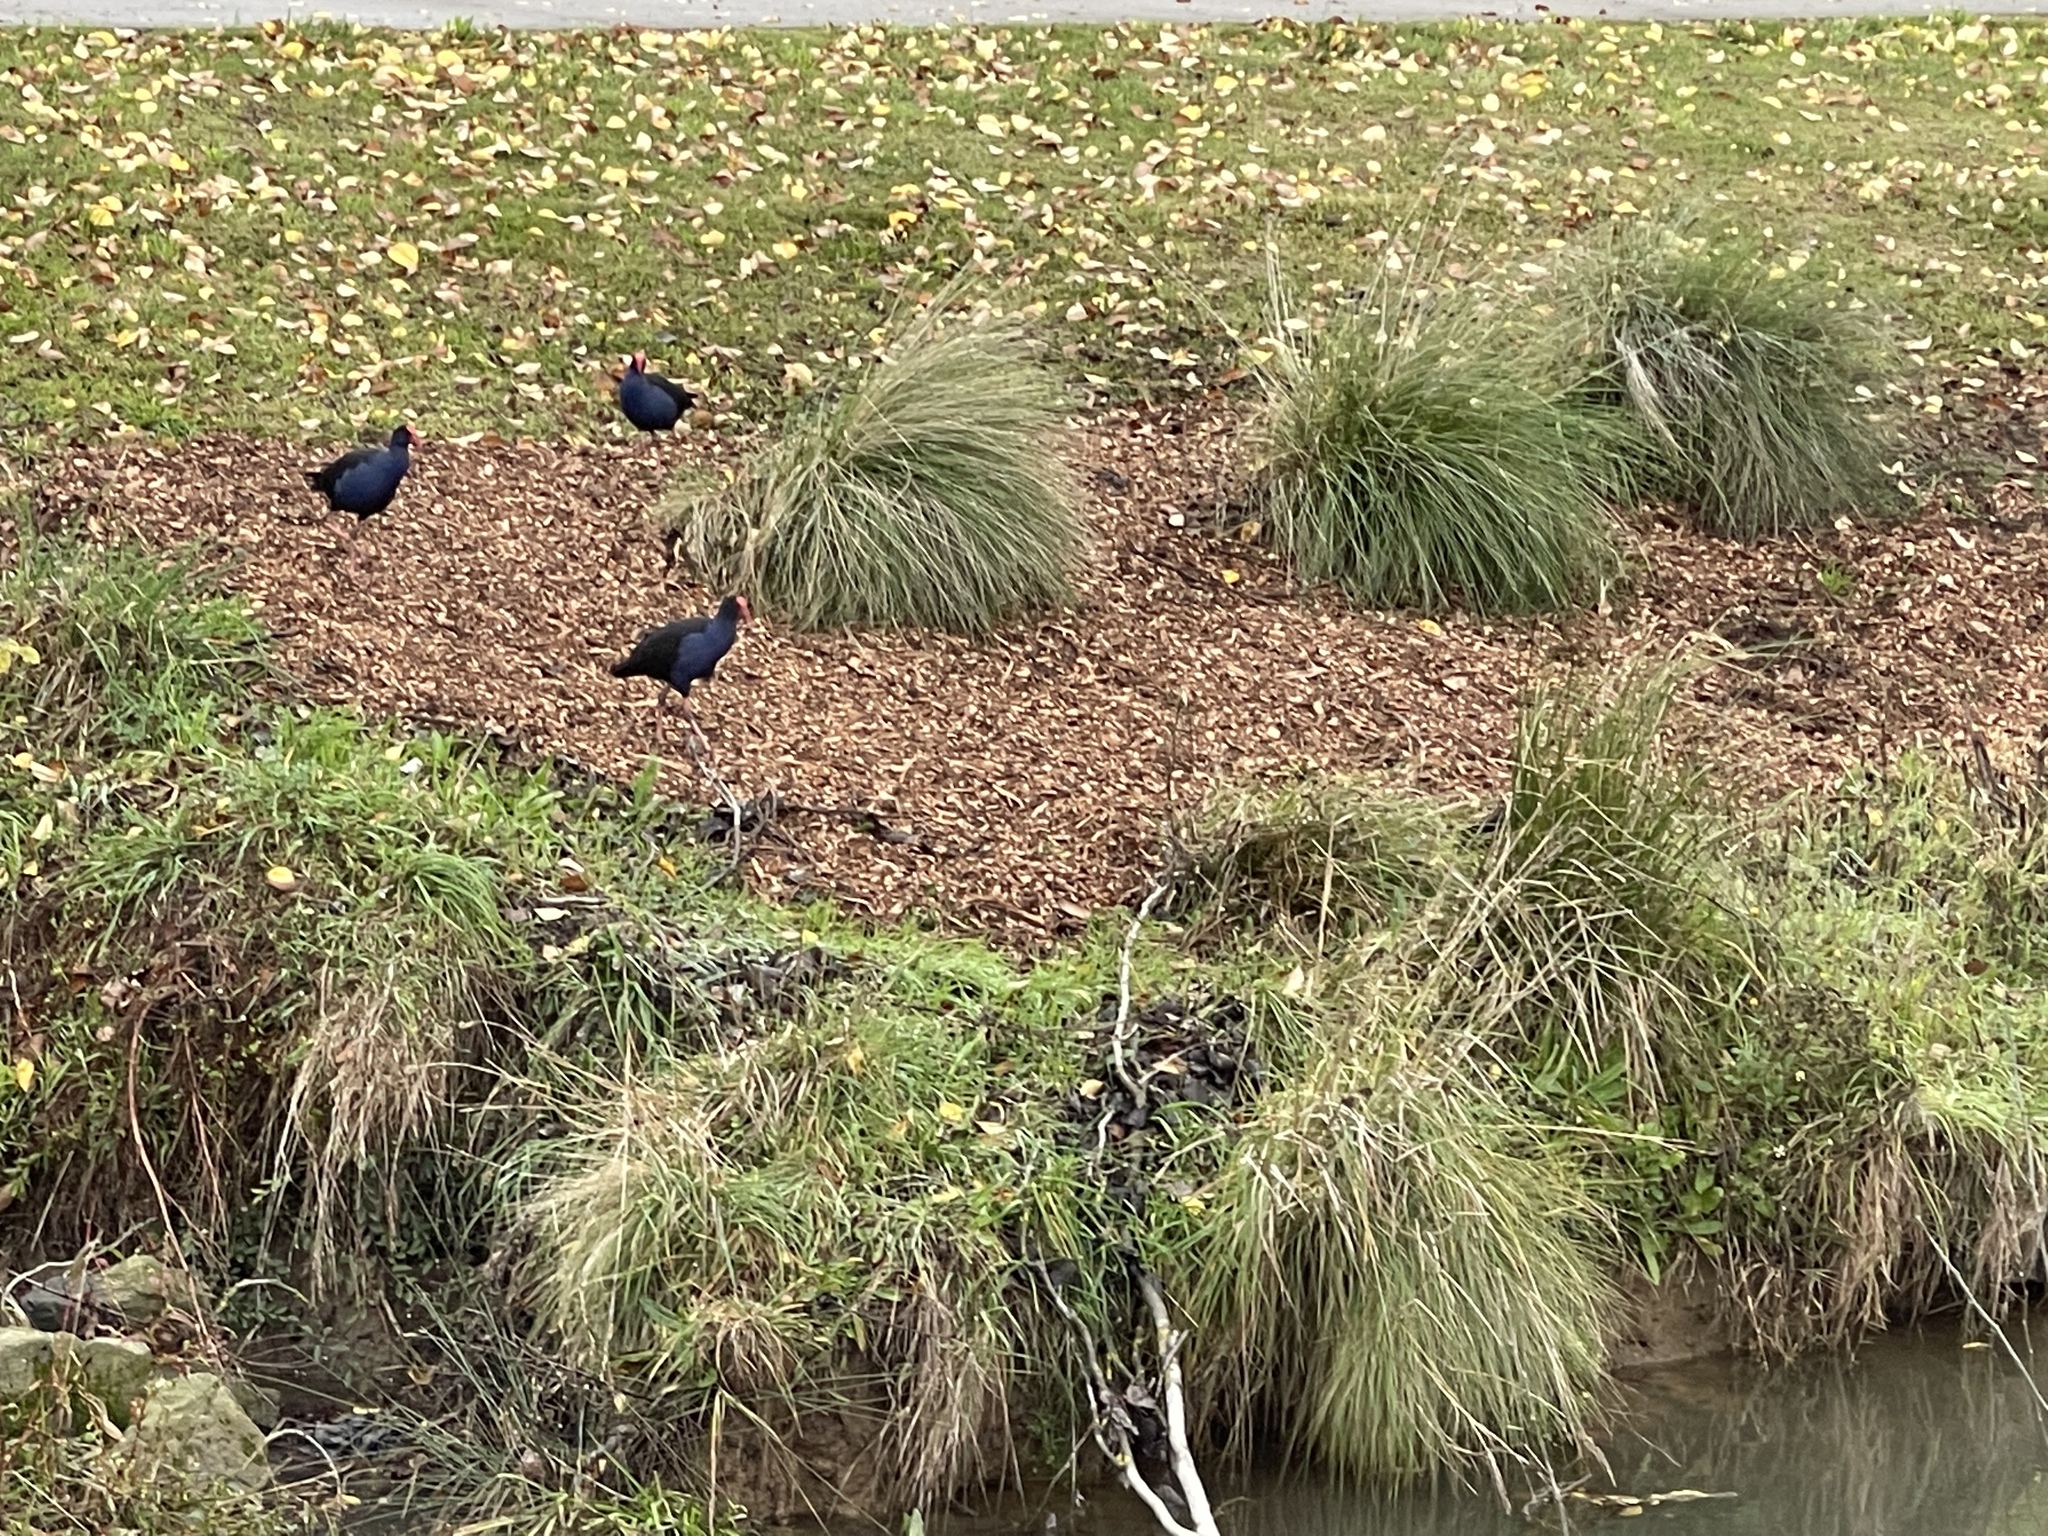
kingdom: Animalia
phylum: Chordata
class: Aves
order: Gruiformes
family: Rallidae
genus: Porphyrio
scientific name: Porphyrio melanotus
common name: Australasian swamphen
